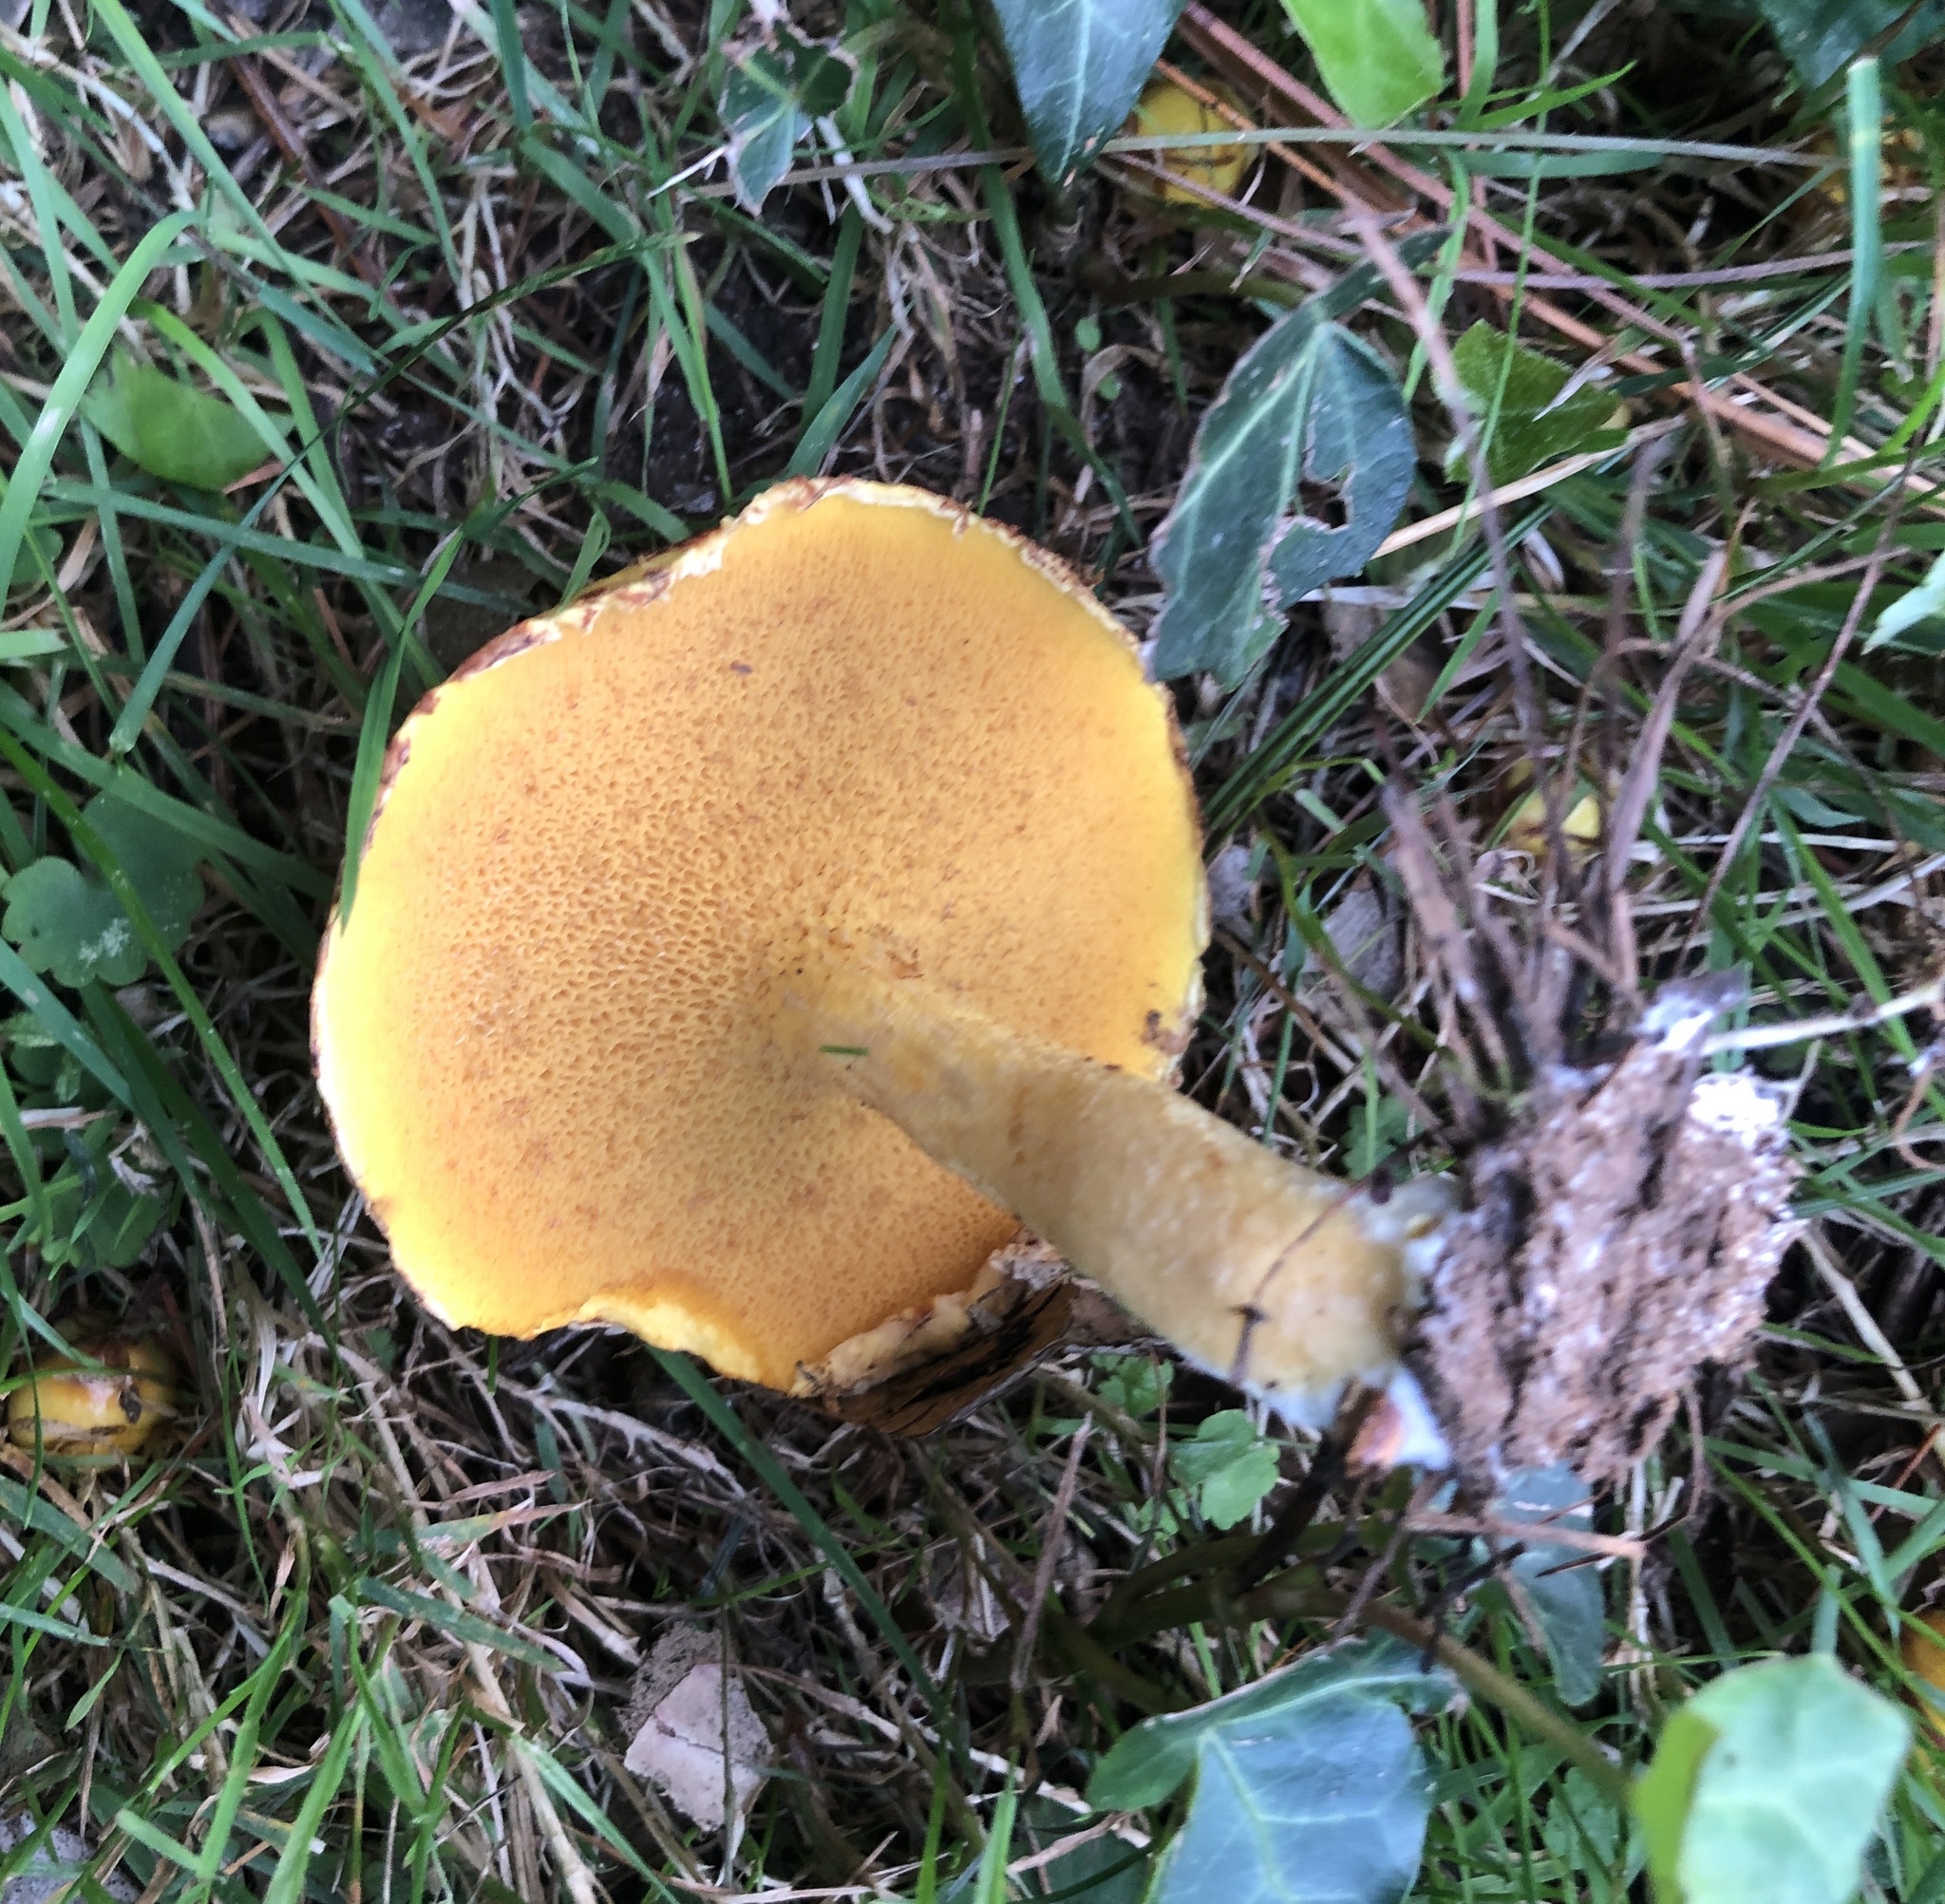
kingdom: Fungi
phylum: Basidiomycota
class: Agaricomycetes
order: Boletales
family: Suillaceae
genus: Suillus
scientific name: Suillus americanus
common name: Chicken fat mushroom
